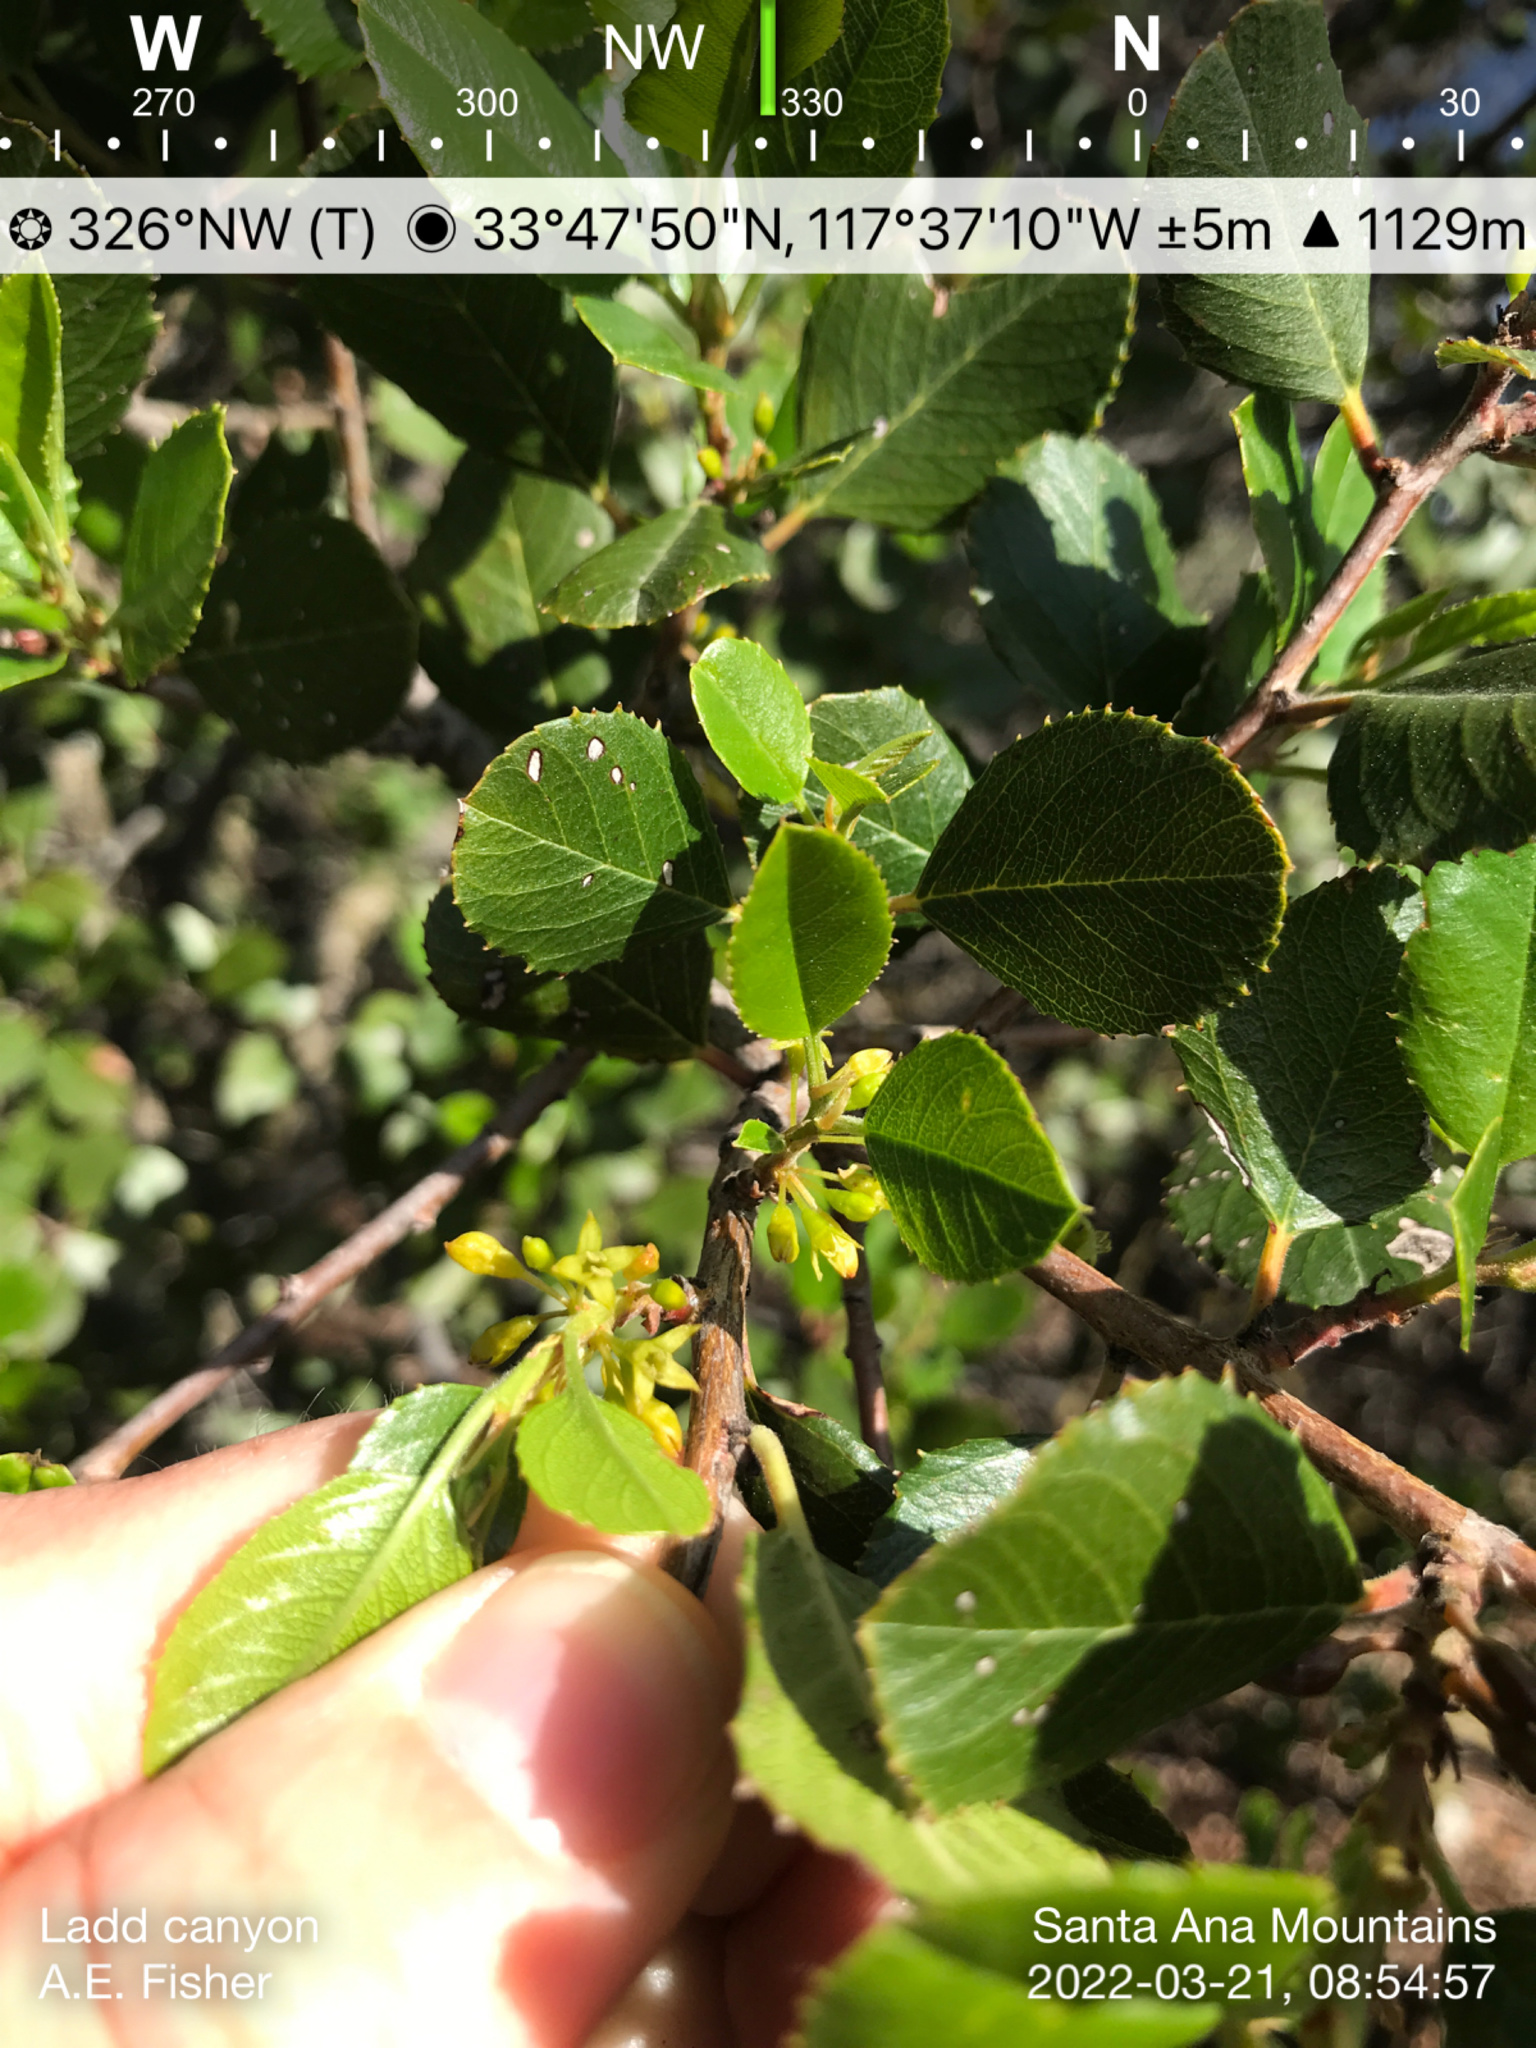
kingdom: Plantae
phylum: Tracheophyta
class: Magnoliopsida
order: Rosales
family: Rhamnaceae
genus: Endotropis
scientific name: Endotropis crocea
